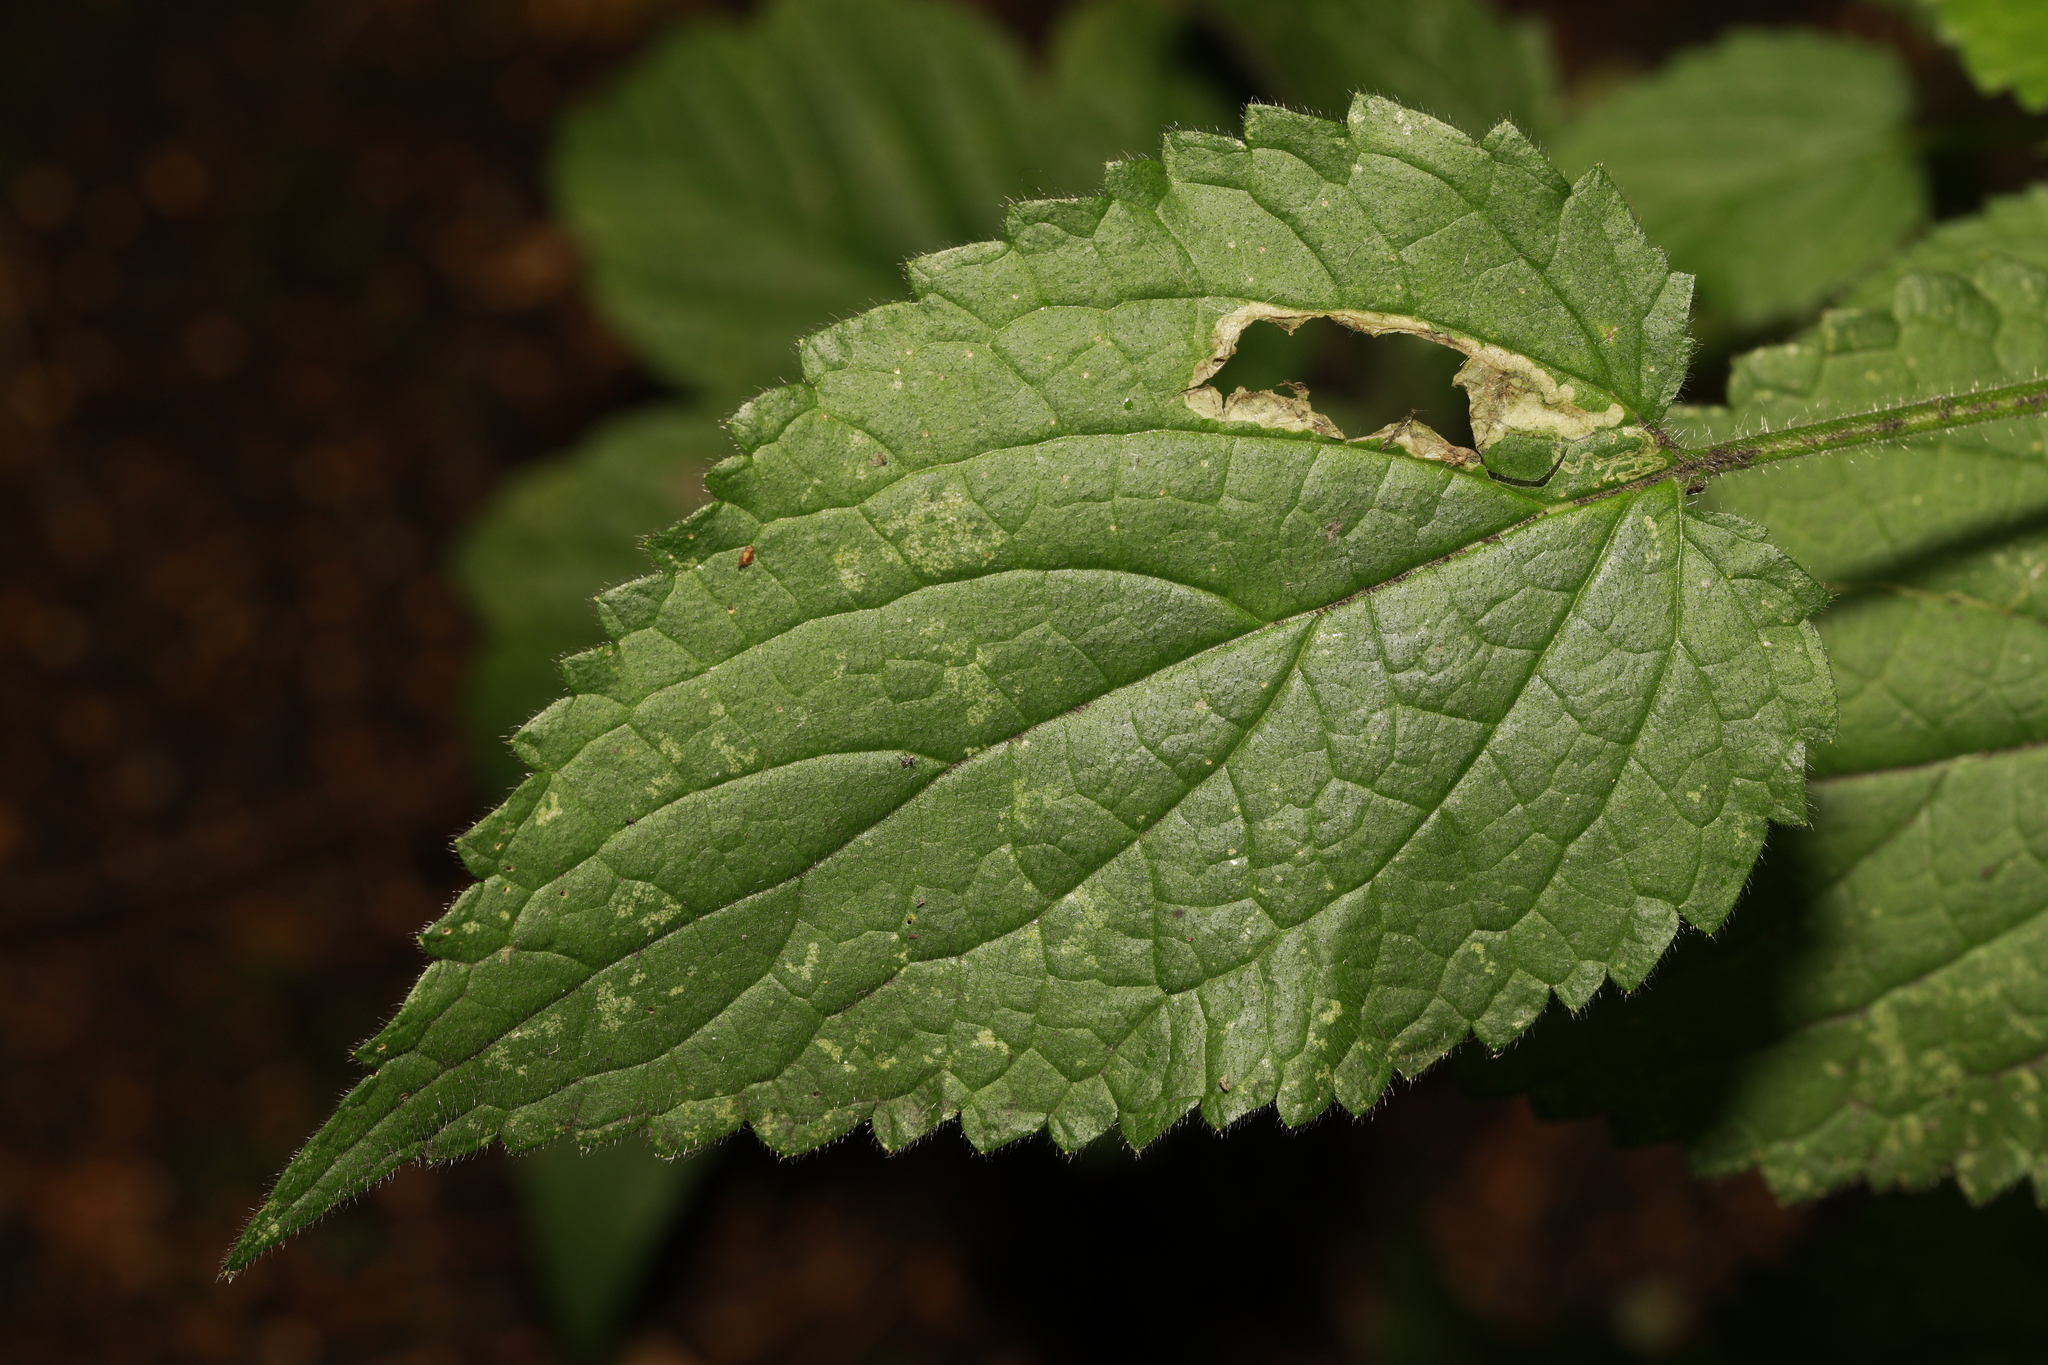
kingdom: Plantae
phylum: Tracheophyta
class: Magnoliopsida
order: Lamiales
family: Lamiaceae
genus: Stachys
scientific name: Stachys sylvatica
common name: Hedge woundwort
